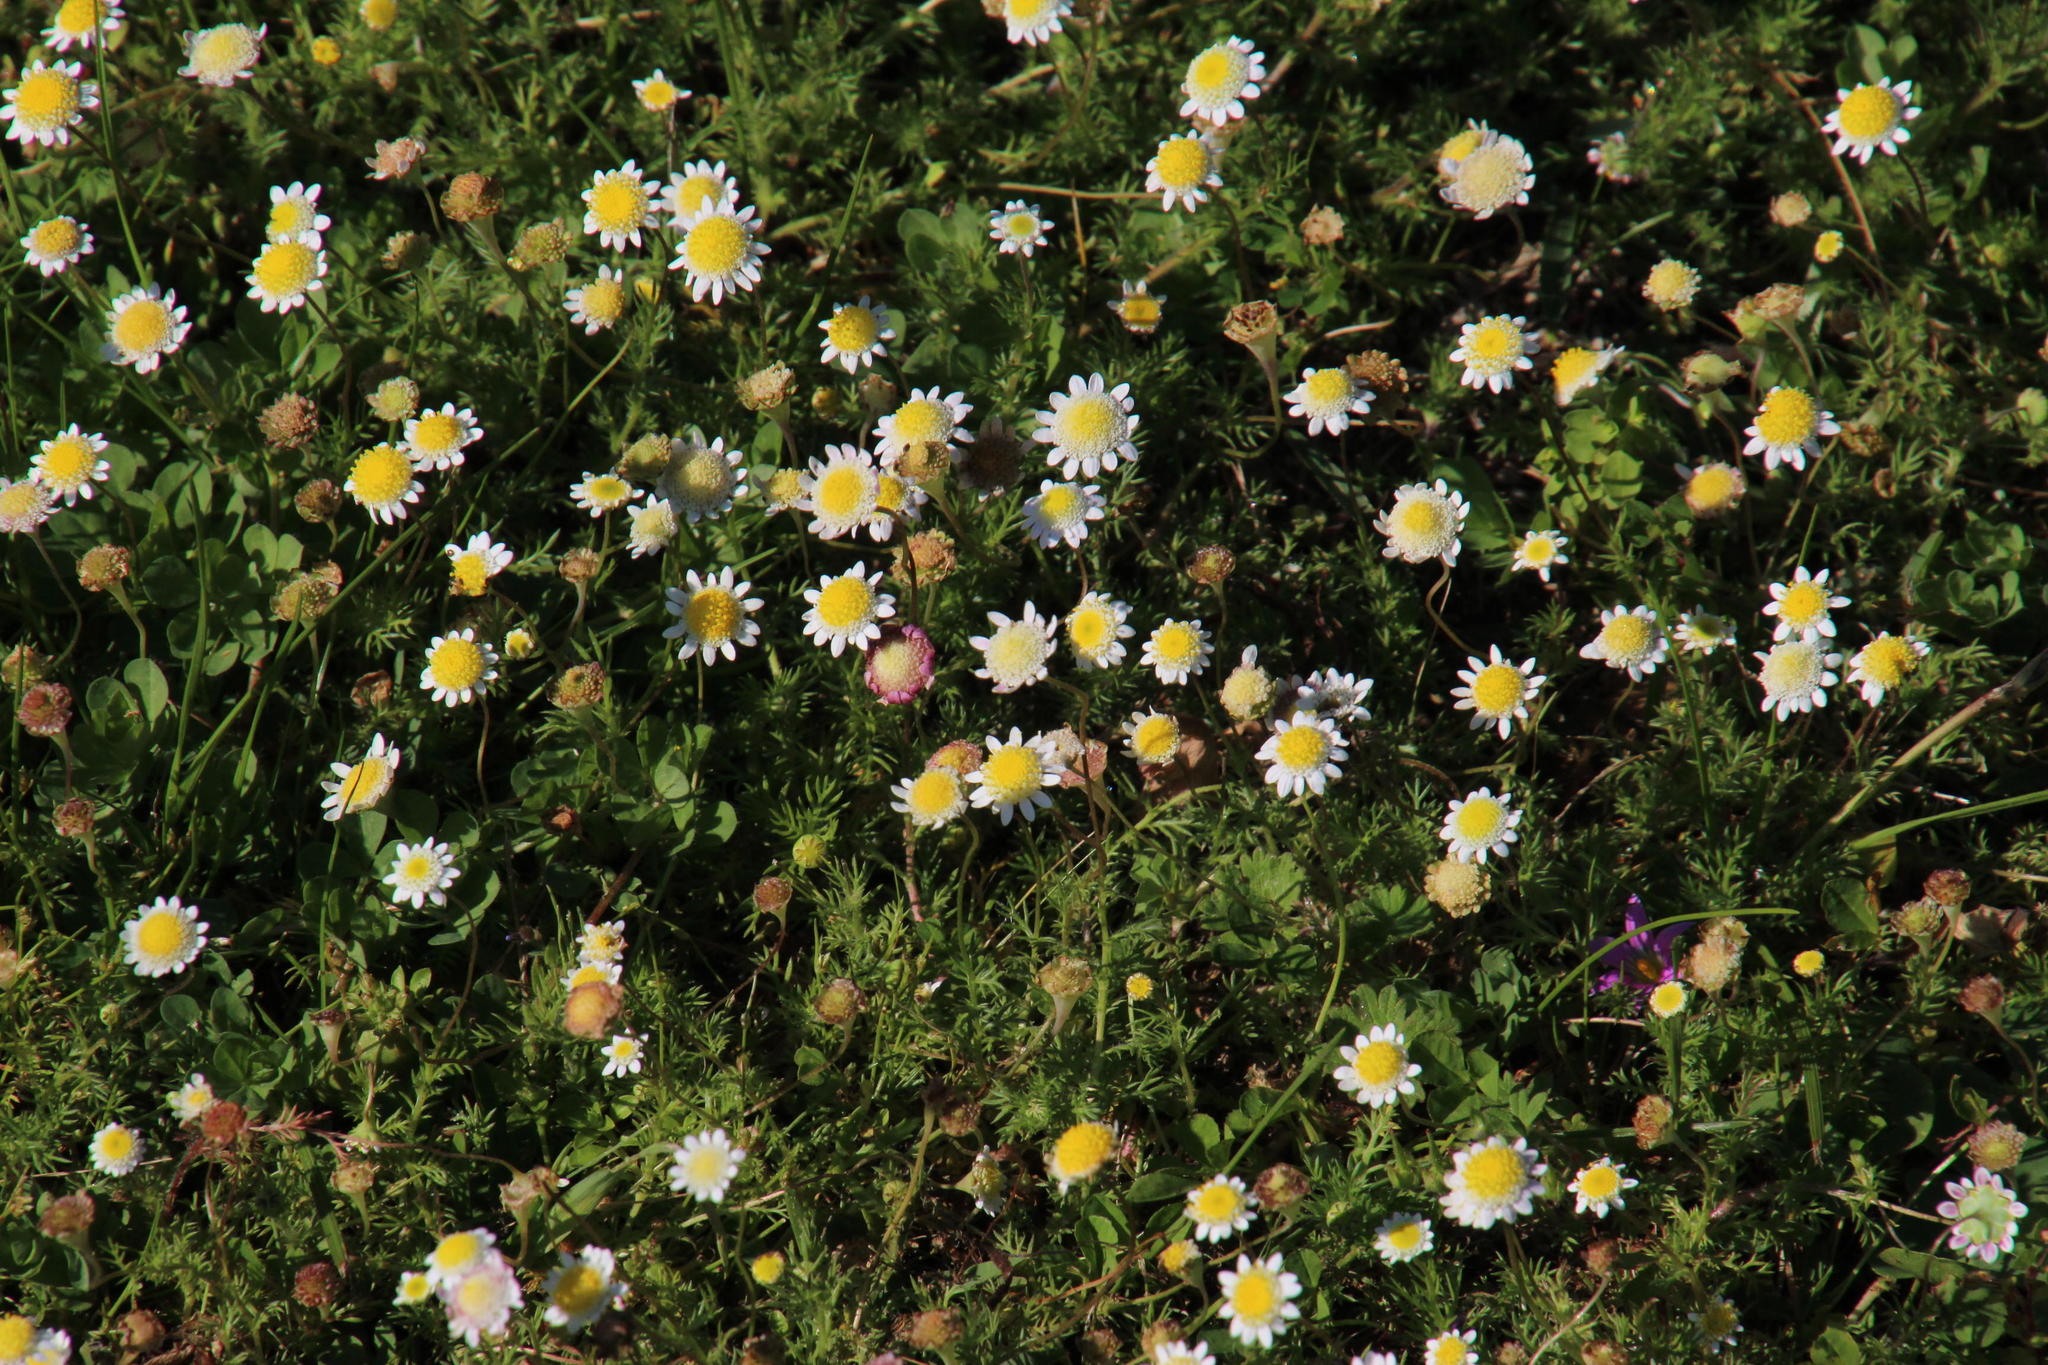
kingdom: Plantae
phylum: Tracheophyta
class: Magnoliopsida
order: Asterales
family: Asteraceae
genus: Cotula
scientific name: Cotula turbinata
